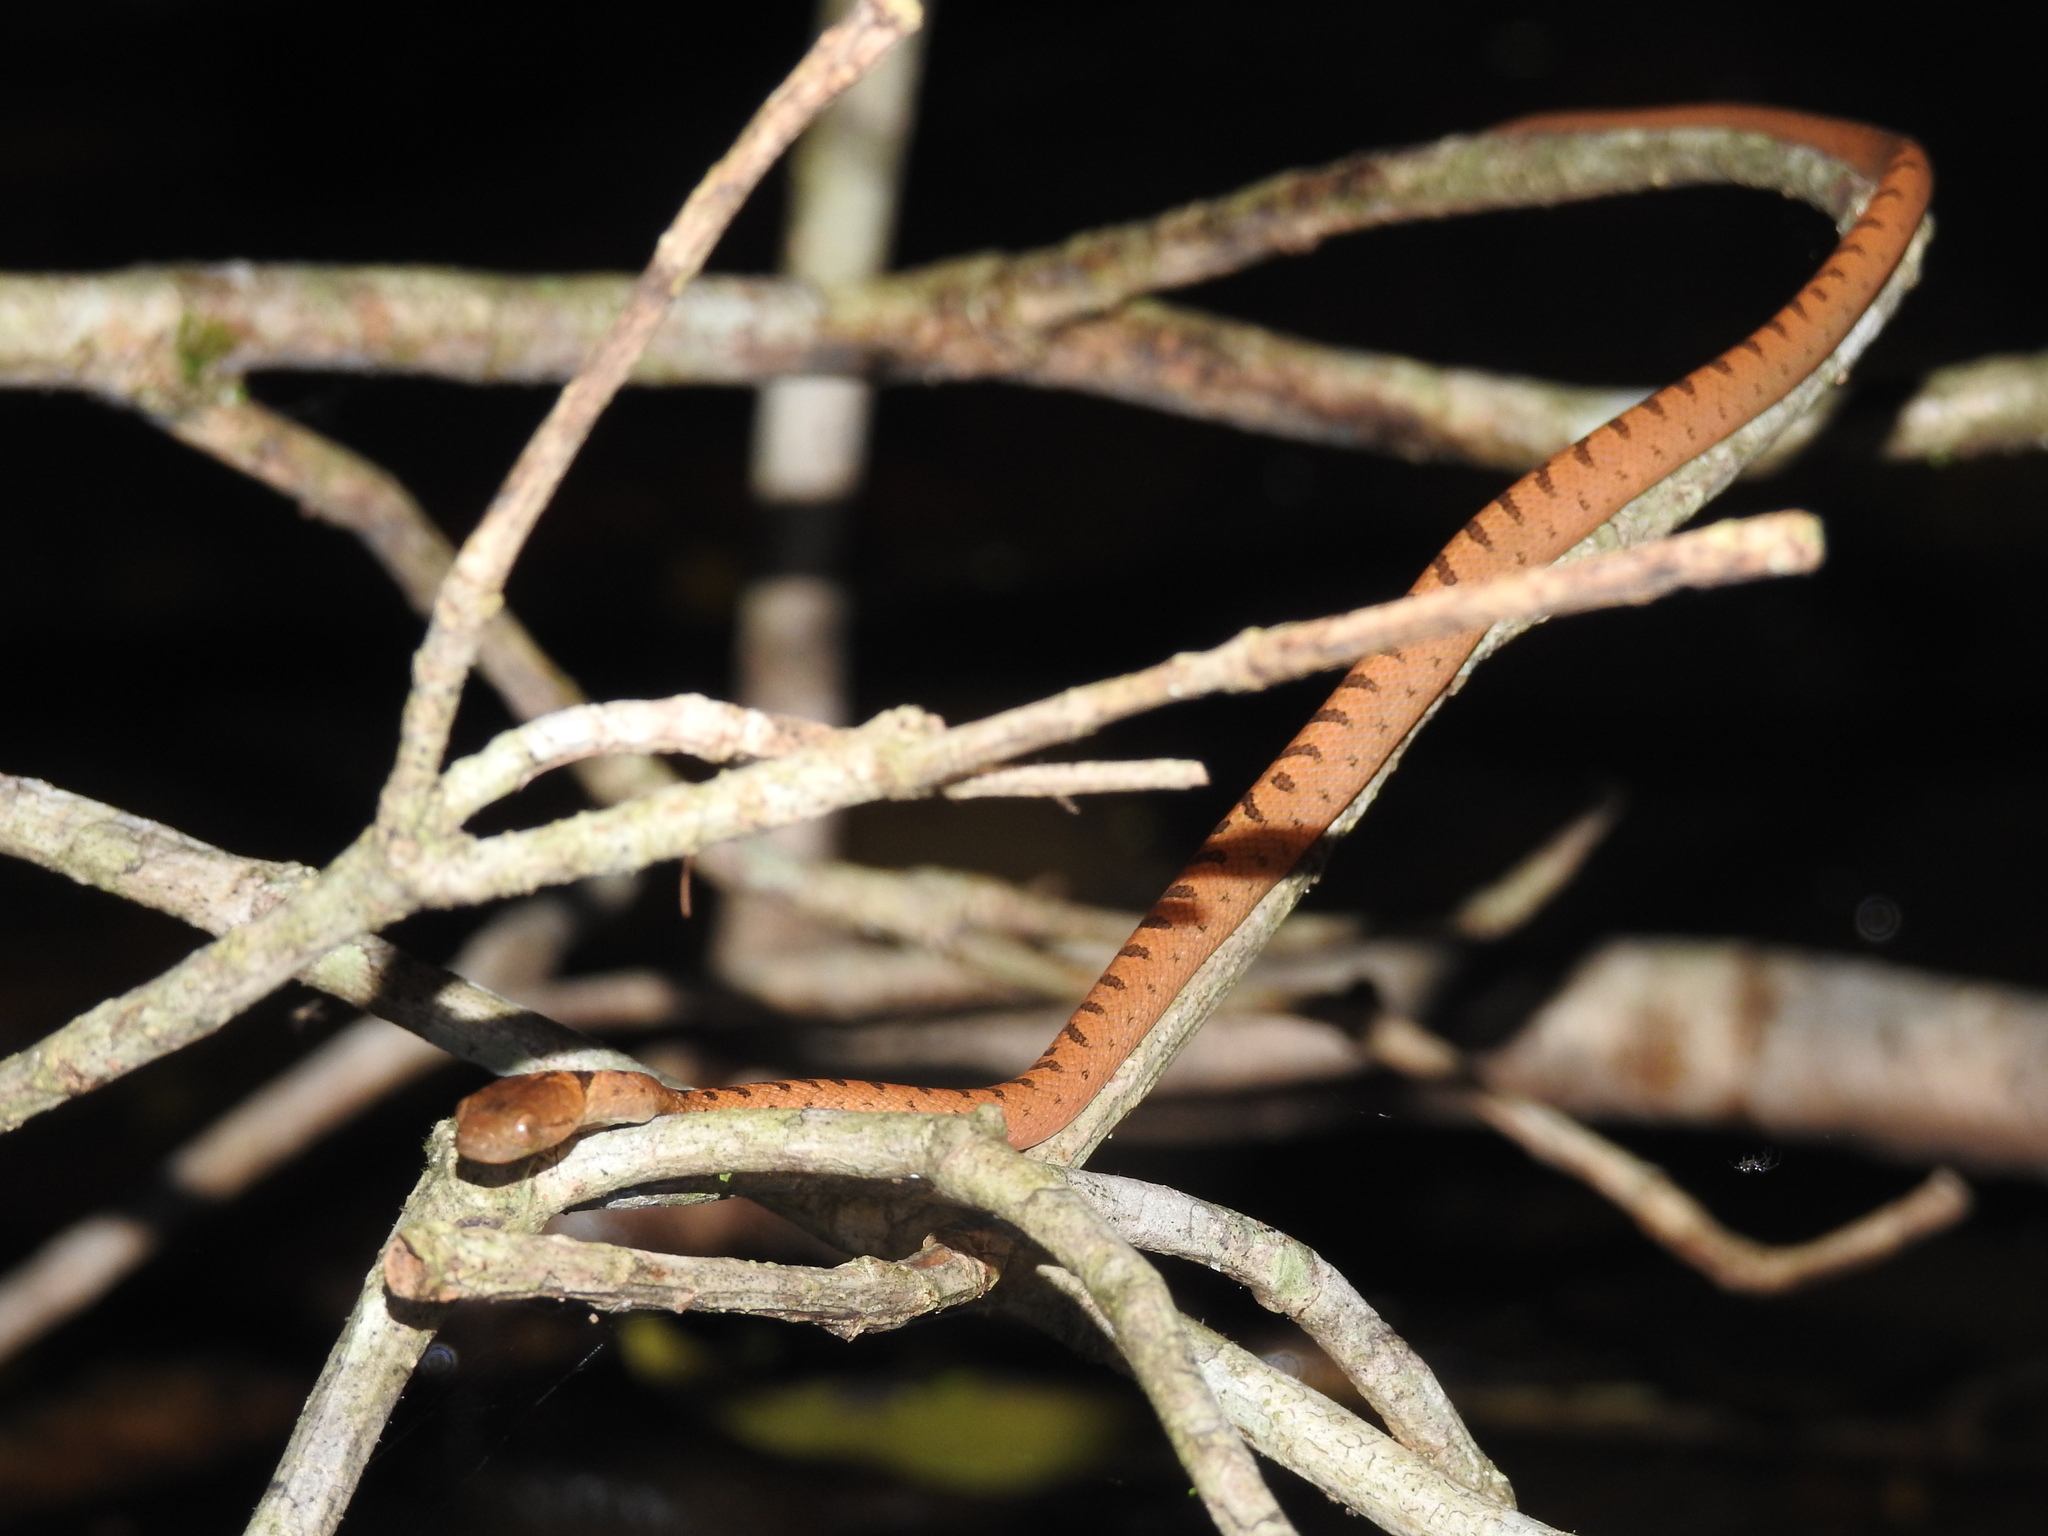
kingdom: Animalia
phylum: Chordata
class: Squamata
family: Colubridae
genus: Leptodeira
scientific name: Leptodeira septentrionalis
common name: Northern cat-eyed snake
